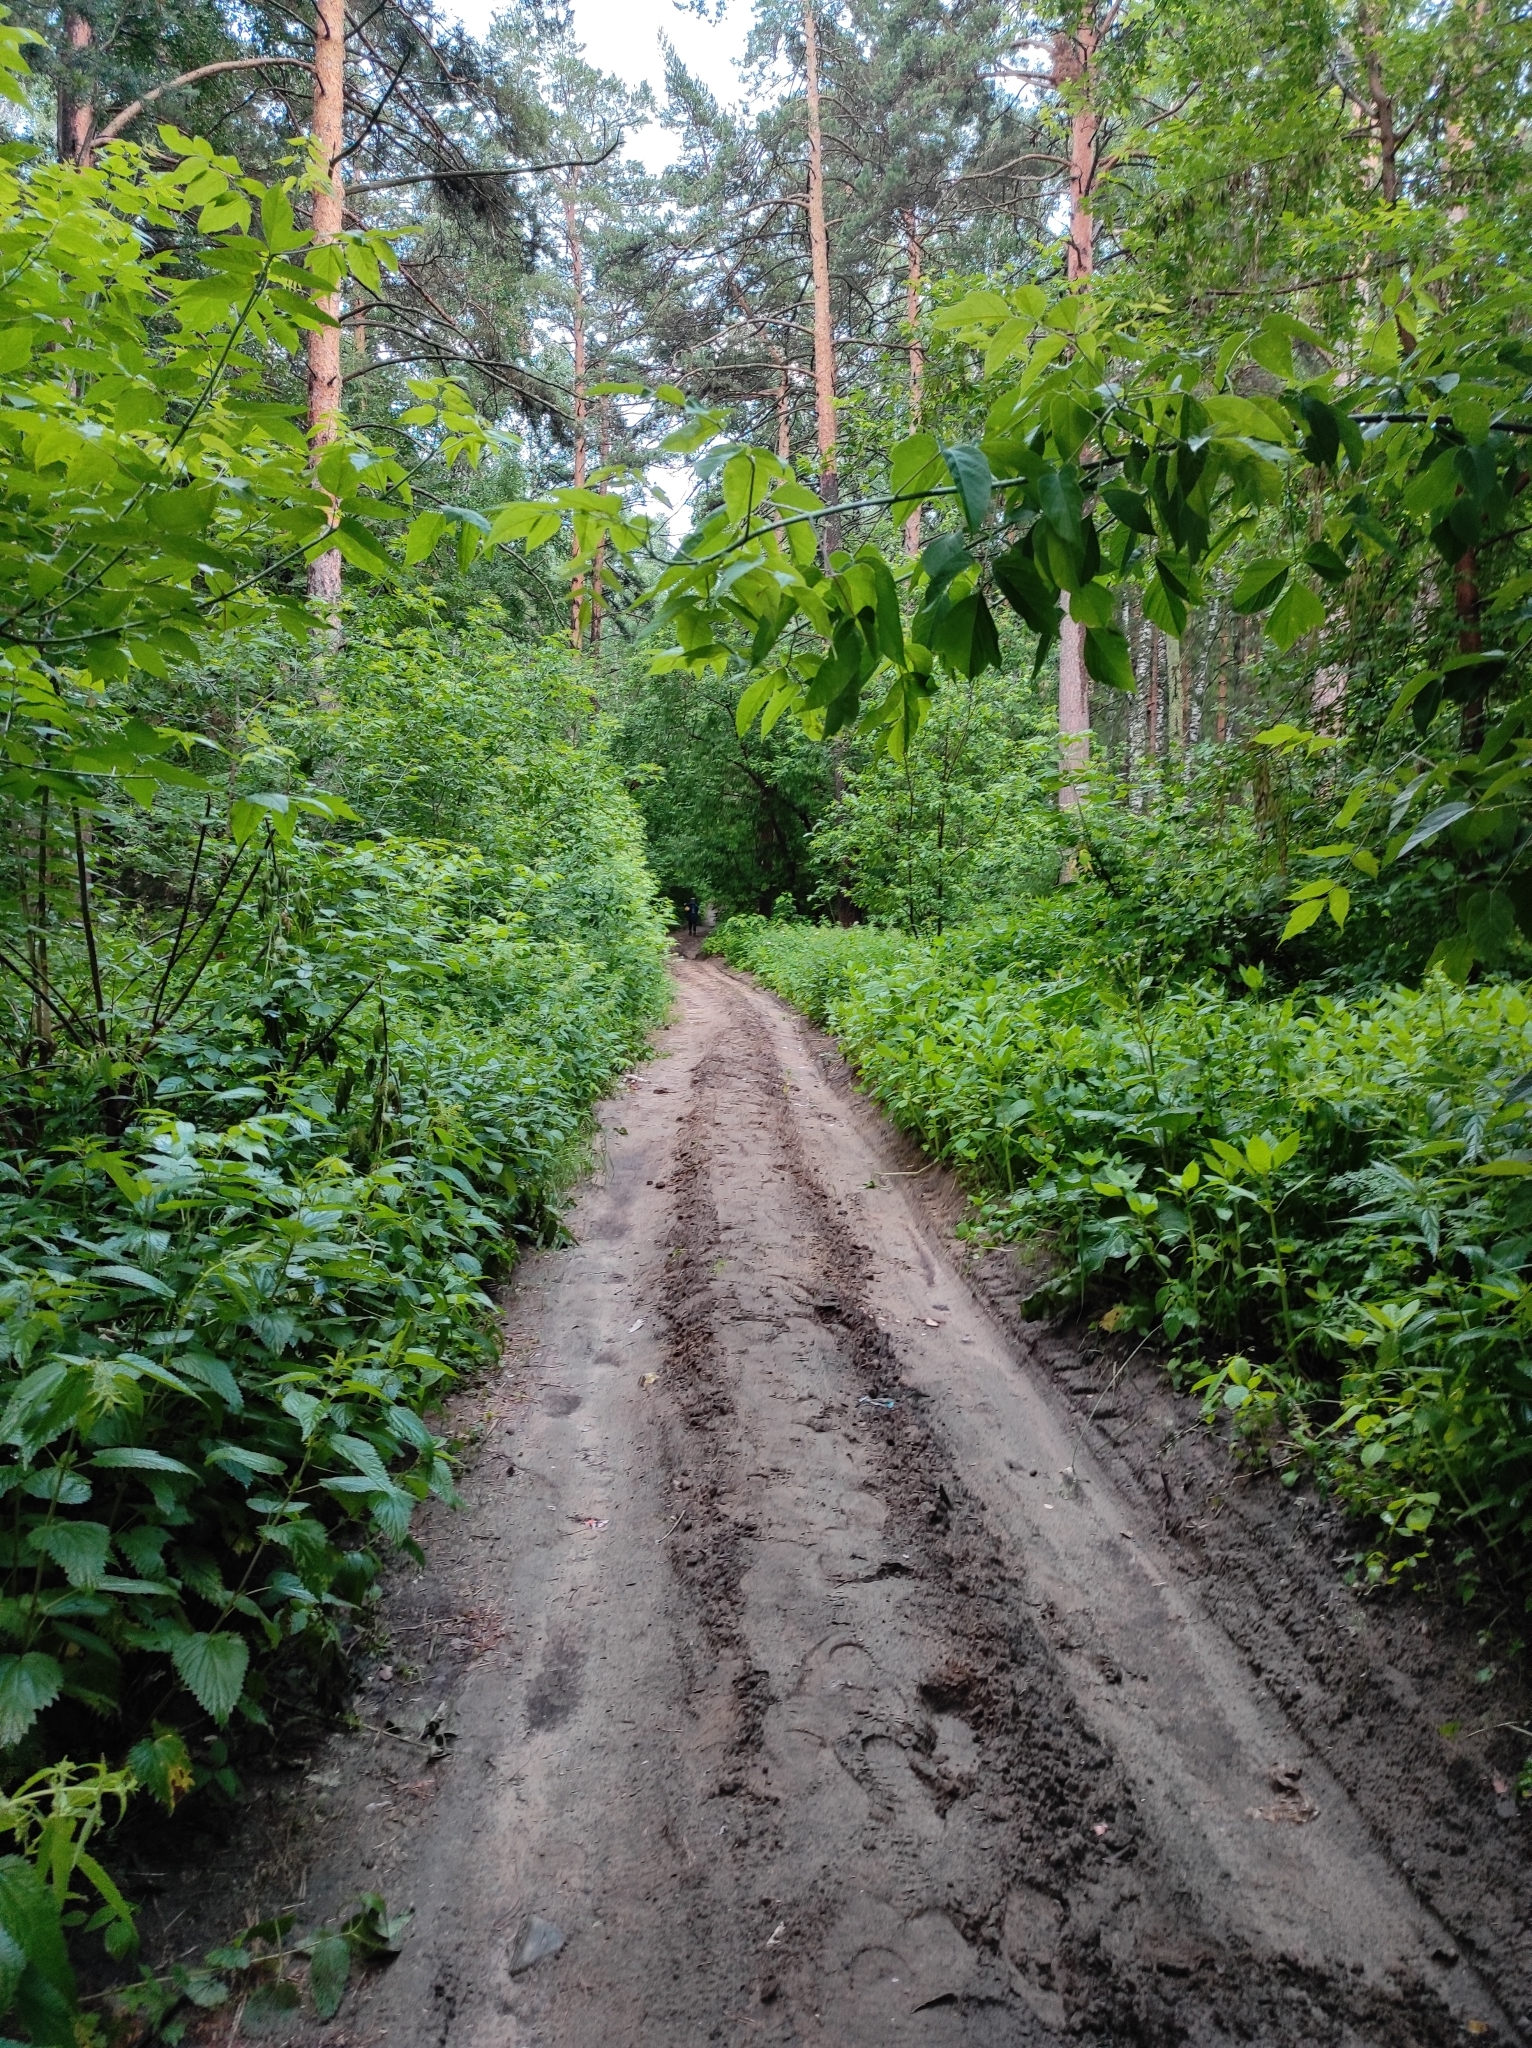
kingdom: Plantae
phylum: Tracheophyta
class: Pinopsida
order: Pinales
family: Pinaceae
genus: Pinus
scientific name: Pinus sylvestris
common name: Scots pine
